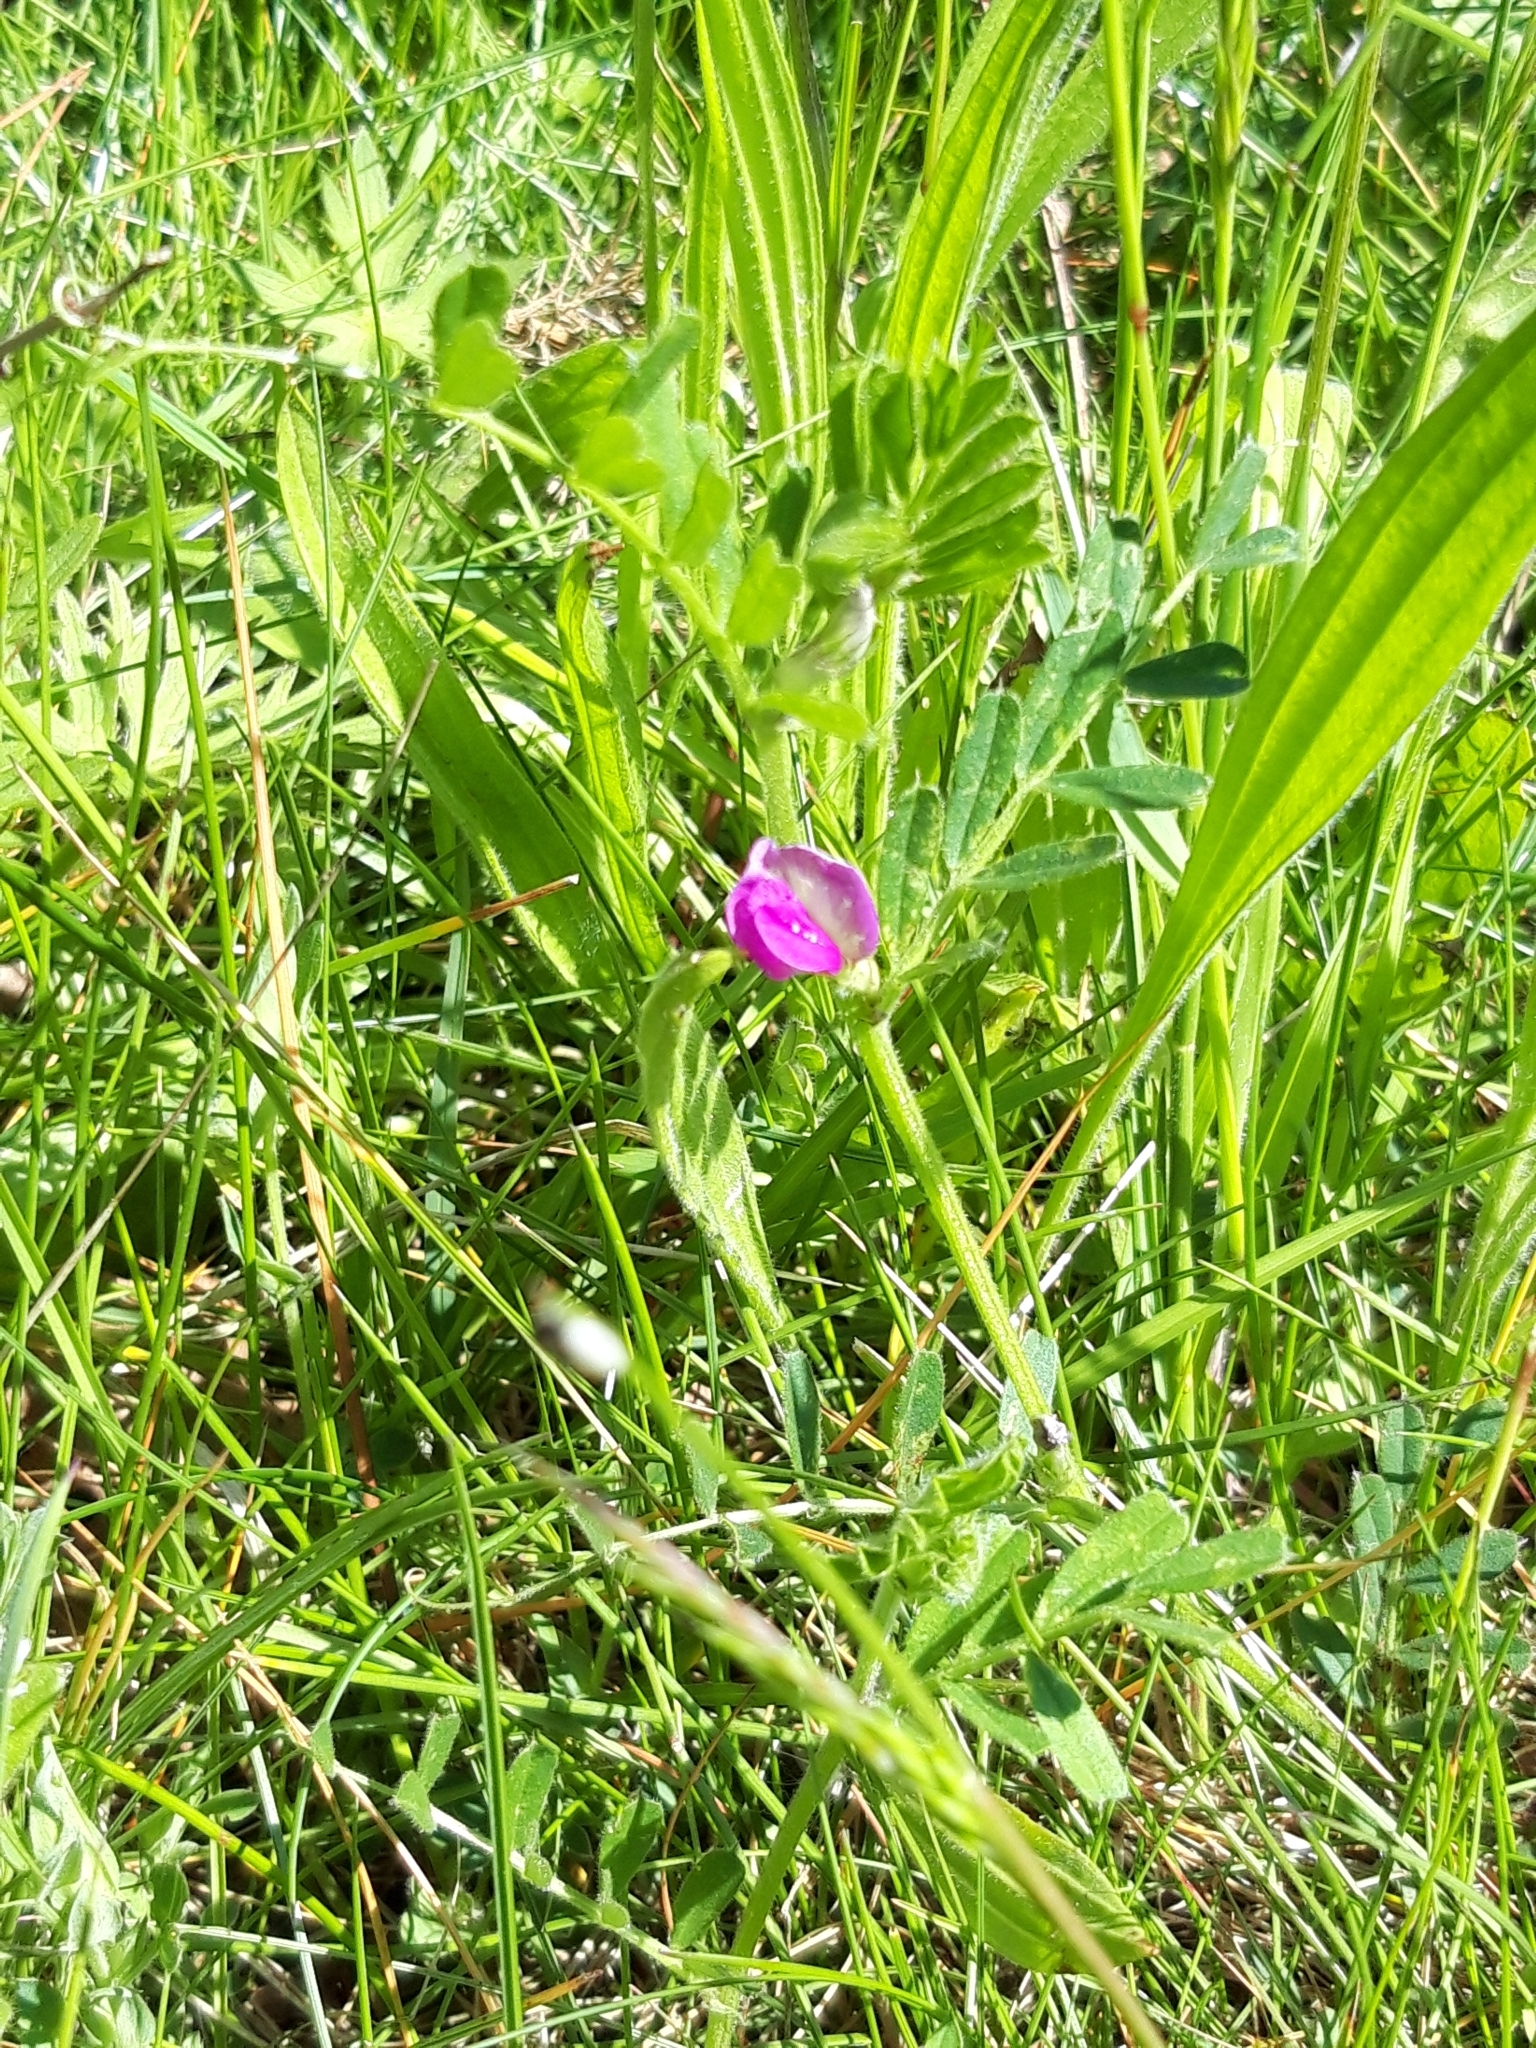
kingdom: Plantae
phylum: Tracheophyta
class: Magnoliopsida
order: Fabales
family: Fabaceae
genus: Vicia
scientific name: Vicia sativa
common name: Garden vetch
